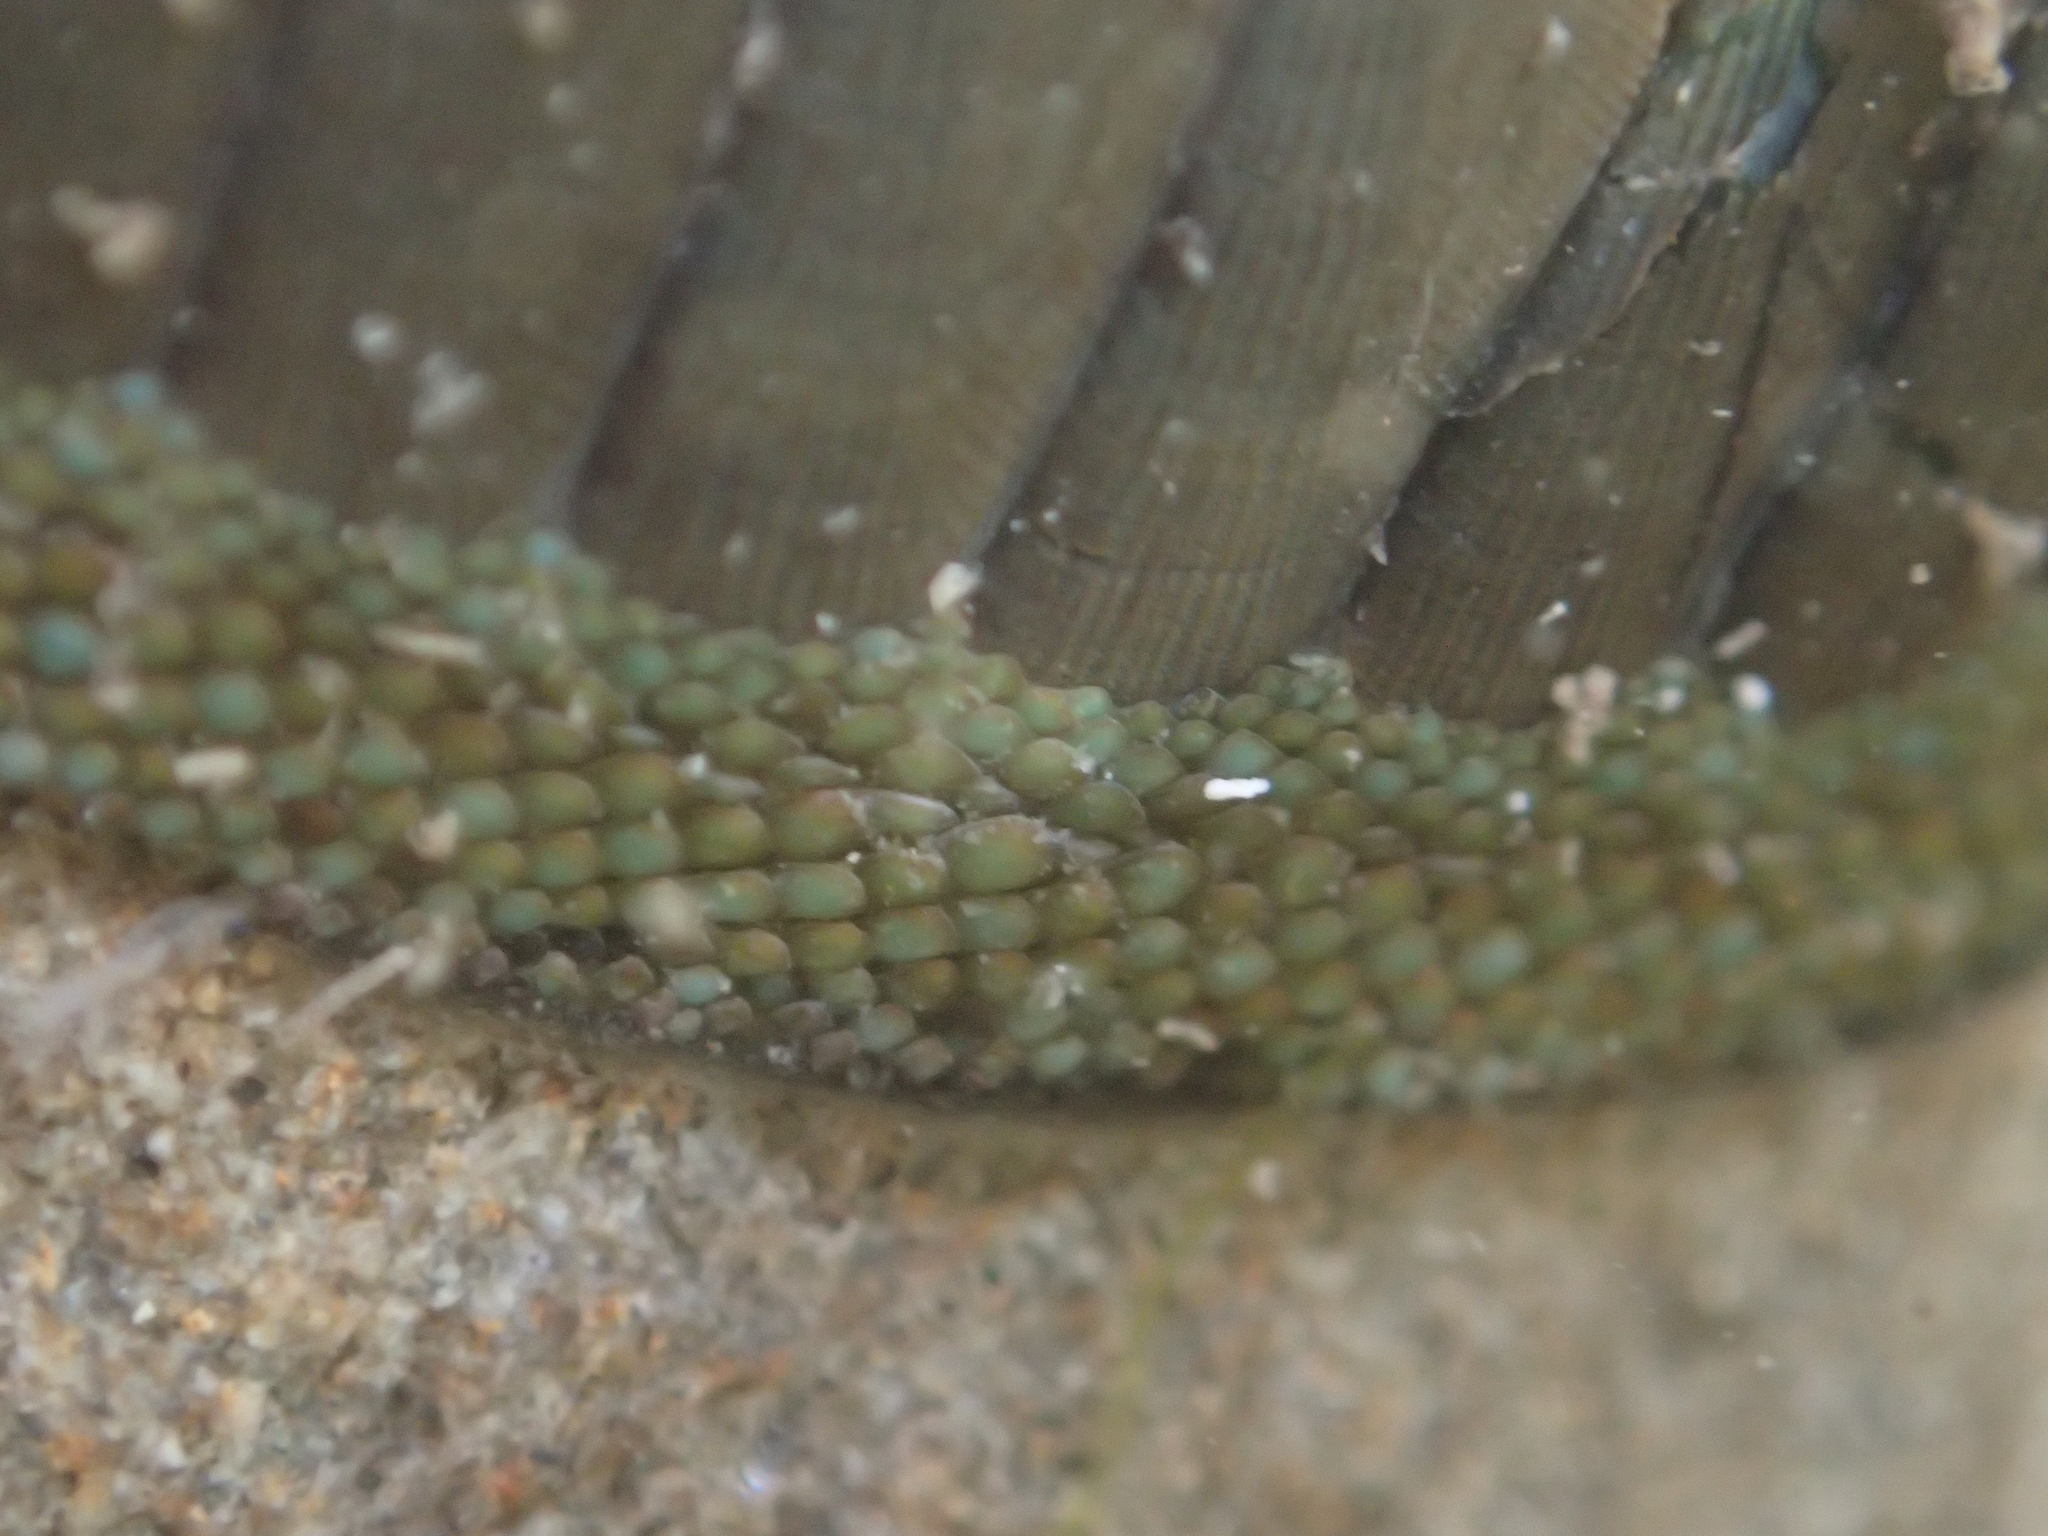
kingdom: Animalia
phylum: Mollusca
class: Polyplacophora
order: Chitonida
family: Chitonidae
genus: Chiton
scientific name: Chiton glaucus
